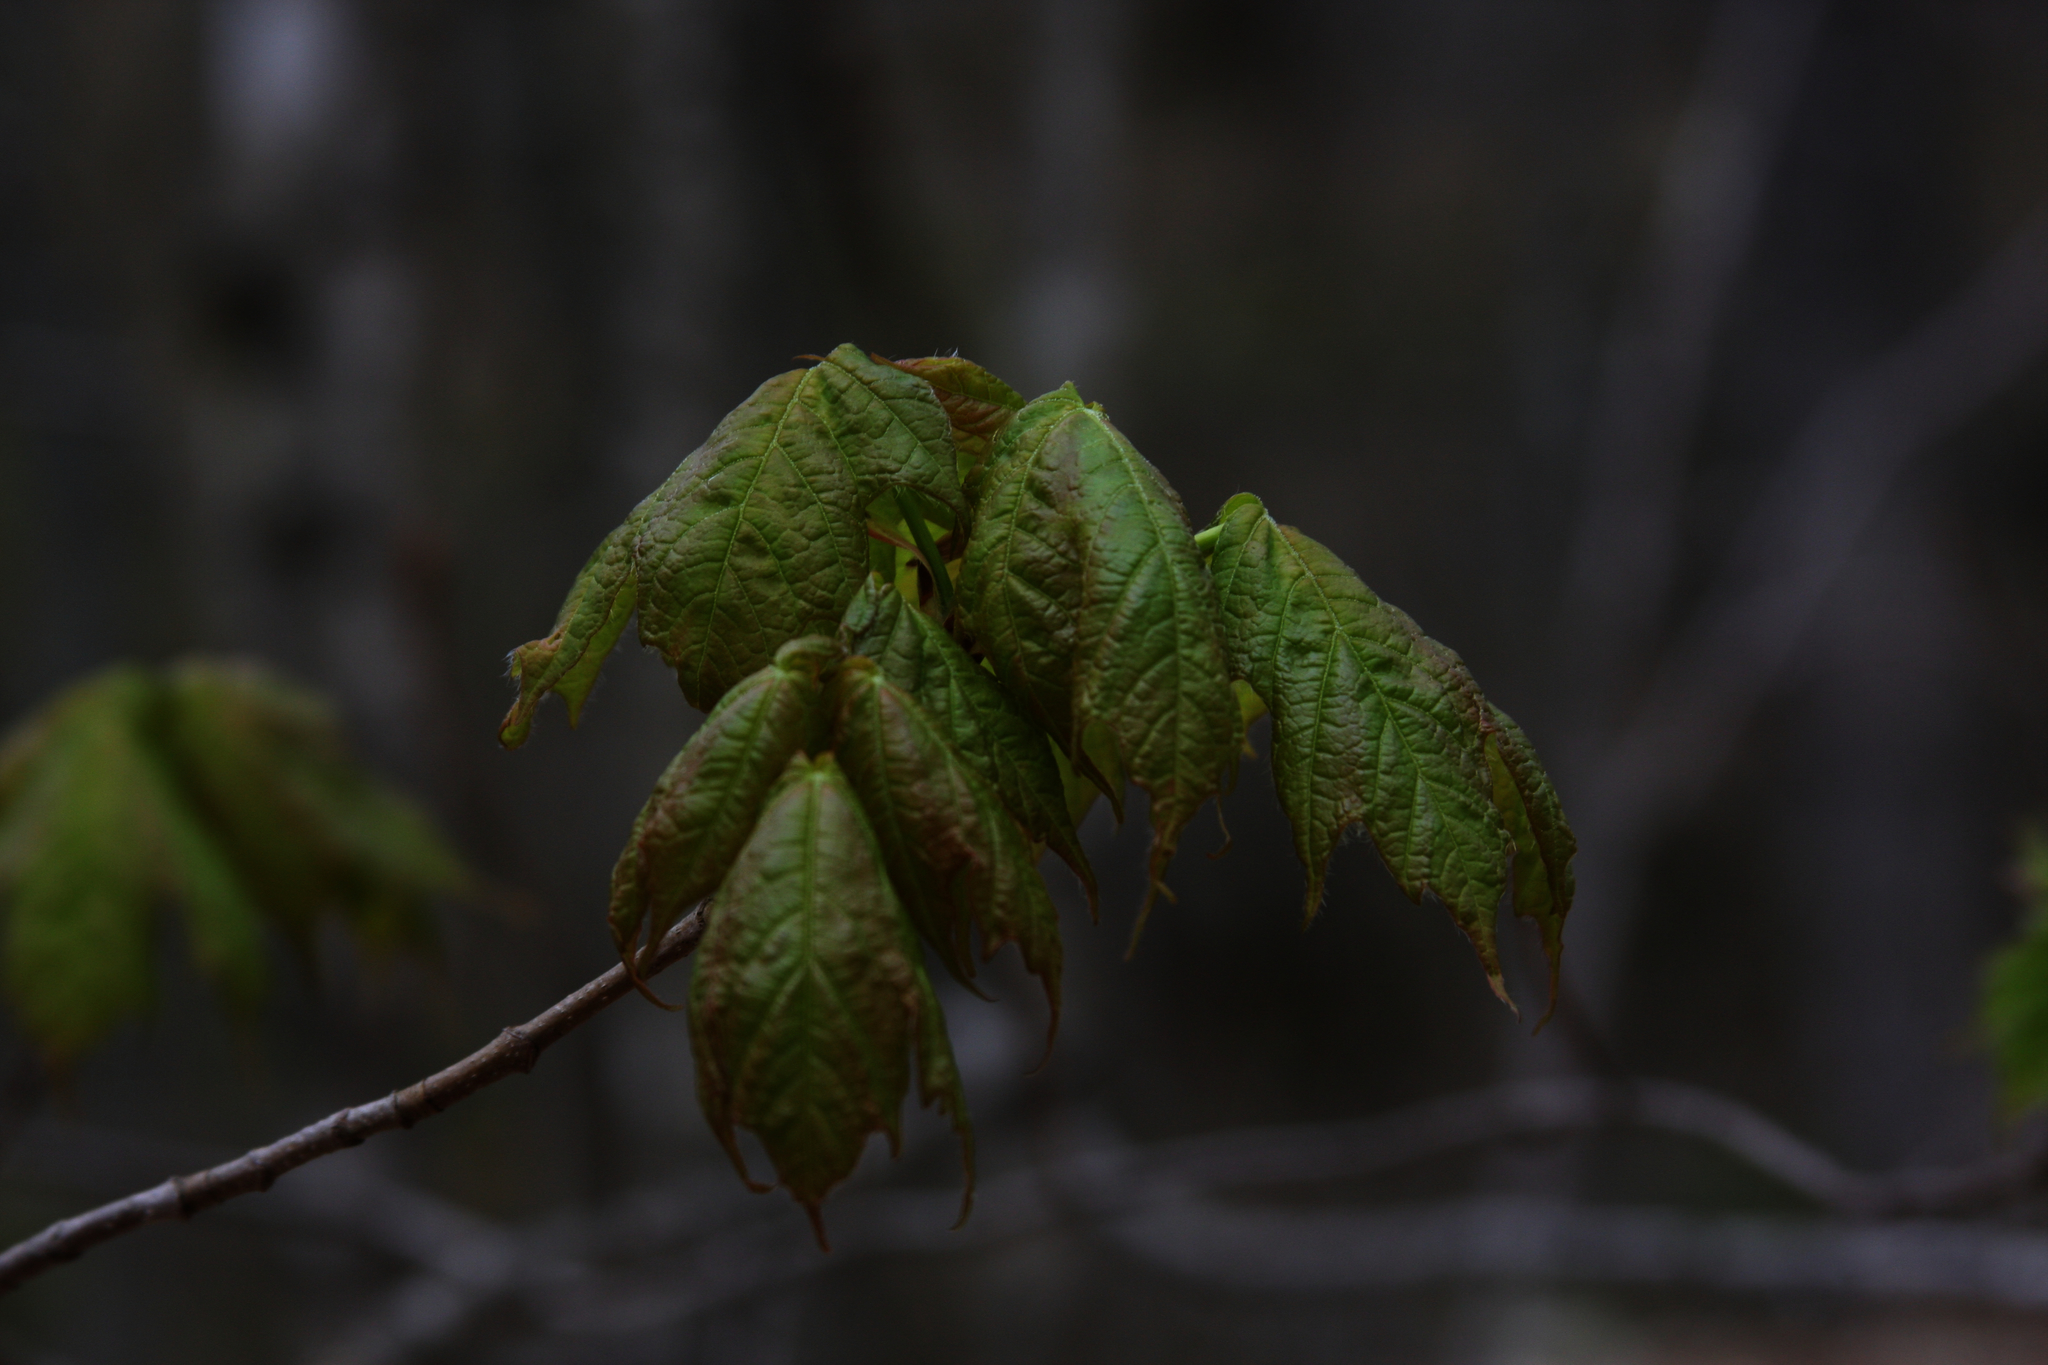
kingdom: Plantae
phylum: Tracheophyta
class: Magnoliopsida
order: Sapindales
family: Sapindaceae
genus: Acer
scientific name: Acer rubrum
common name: Red maple
